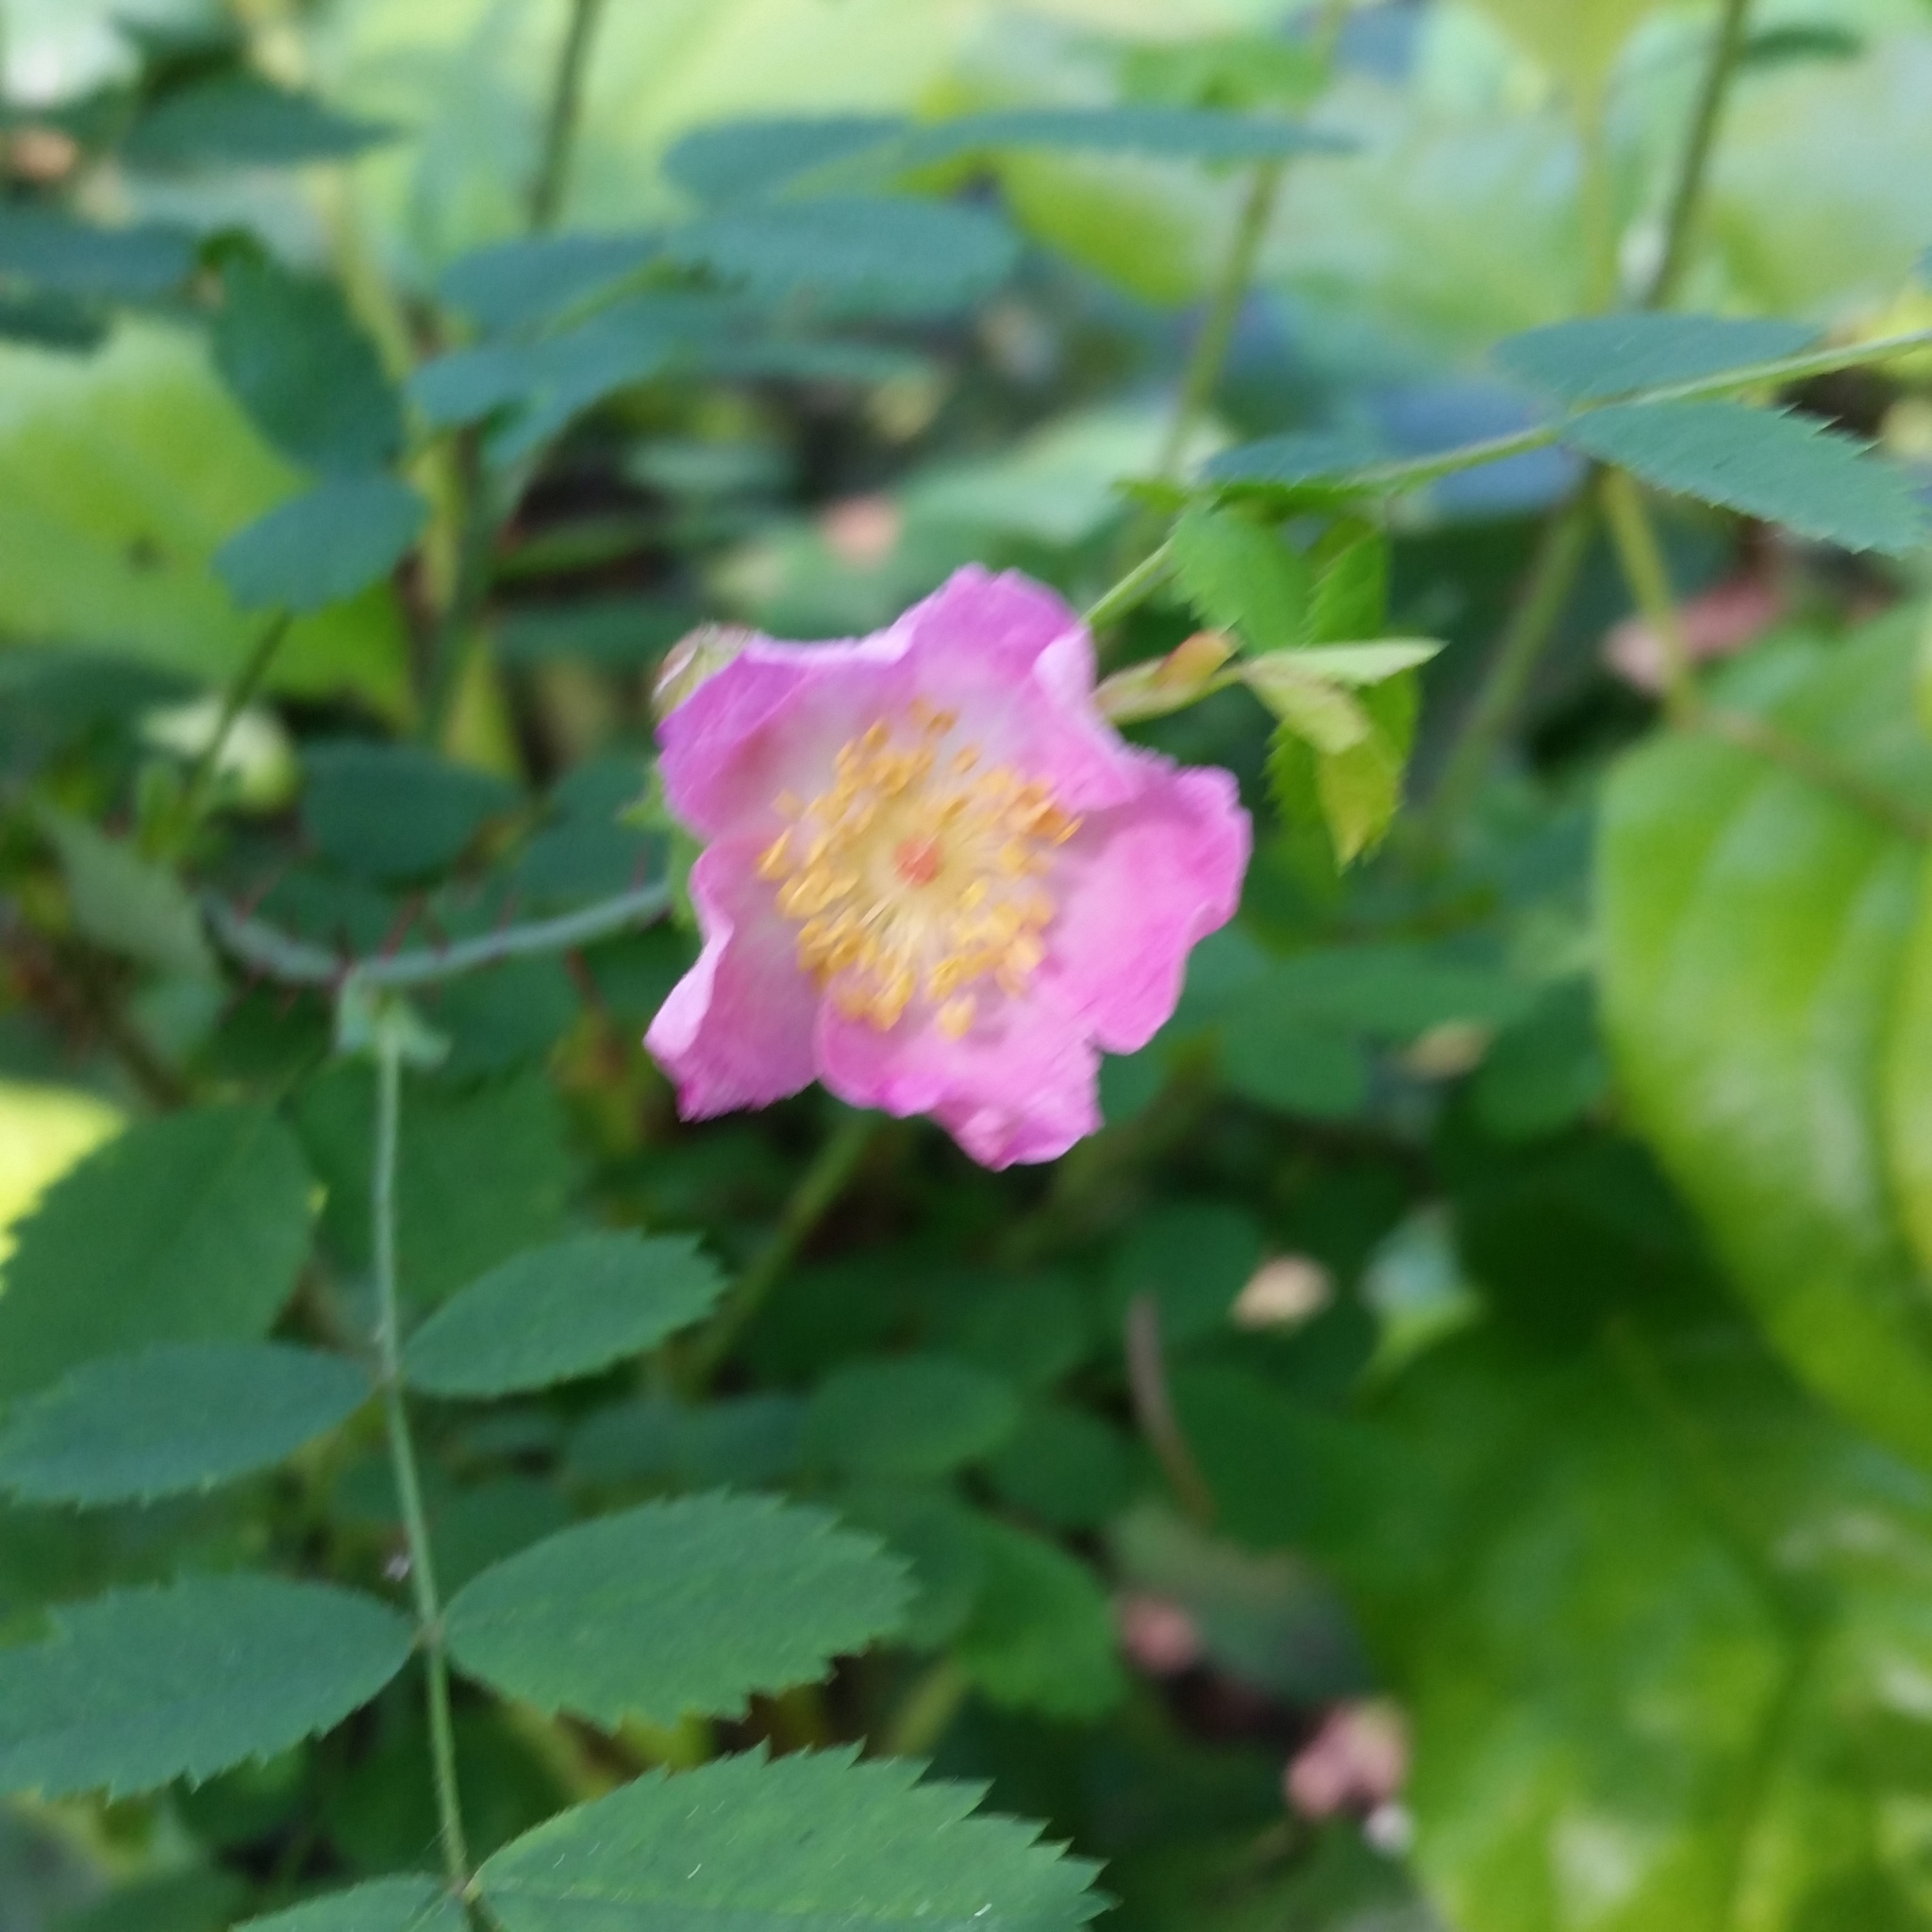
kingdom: Plantae
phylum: Tracheophyta
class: Magnoliopsida
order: Rosales
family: Rosaceae
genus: Rosa
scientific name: Rosa nutkana
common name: Nootka rose
